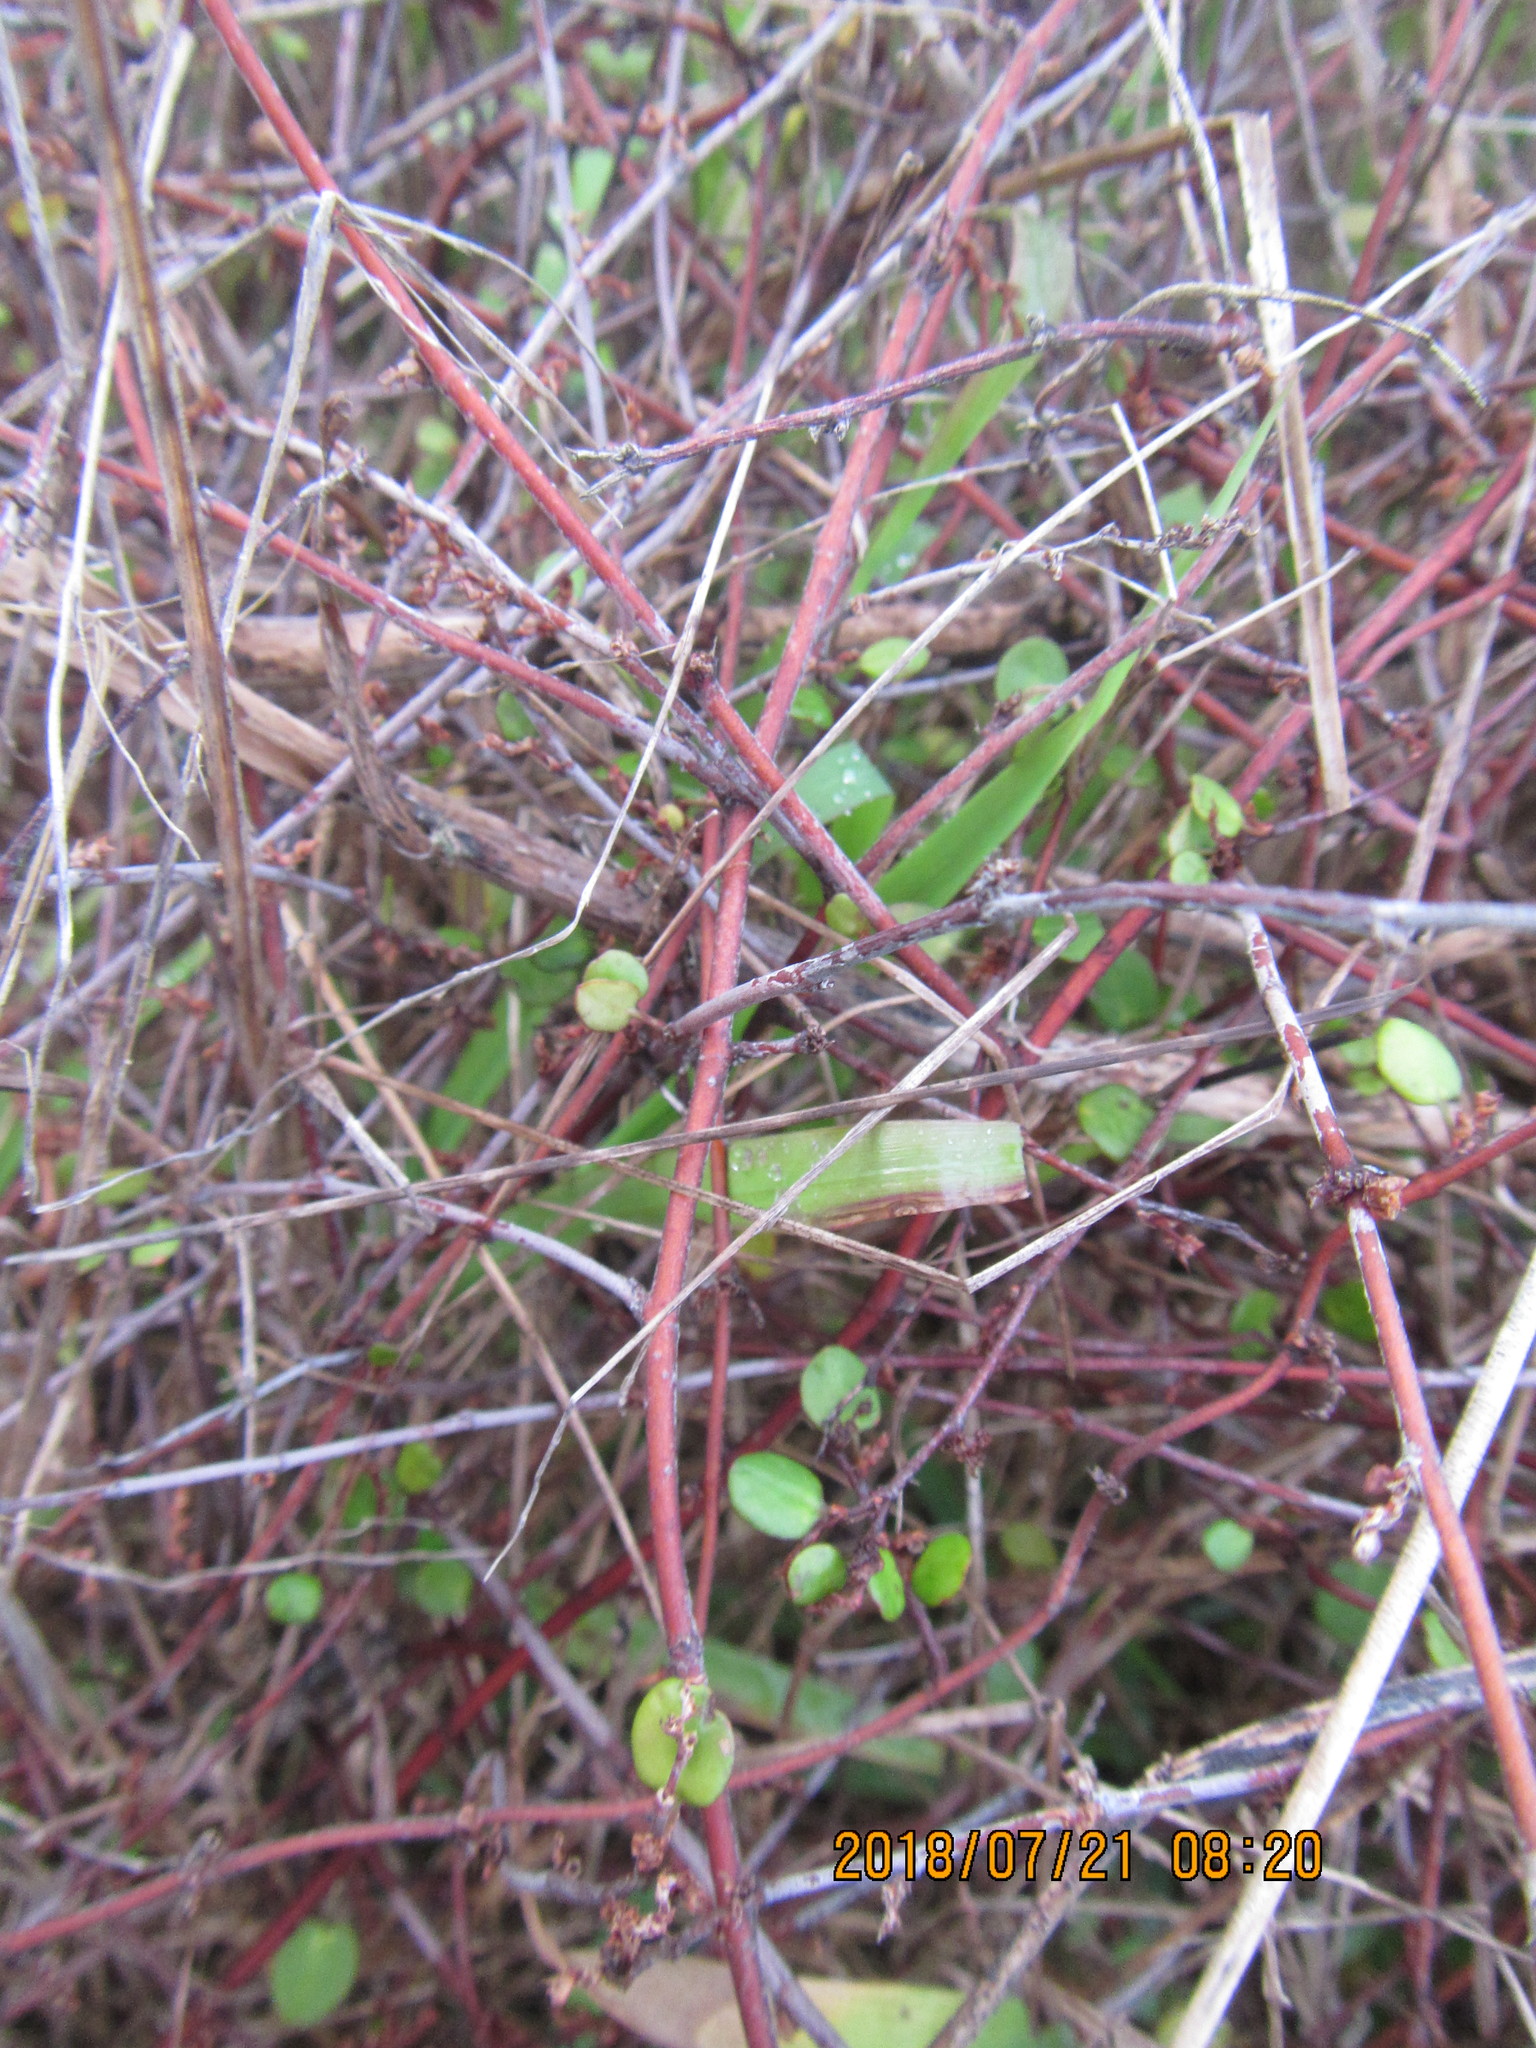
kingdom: Plantae
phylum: Tracheophyta
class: Magnoliopsida
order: Caryophyllales
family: Polygonaceae
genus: Muehlenbeckia
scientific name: Muehlenbeckia complexa
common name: Wireplant
